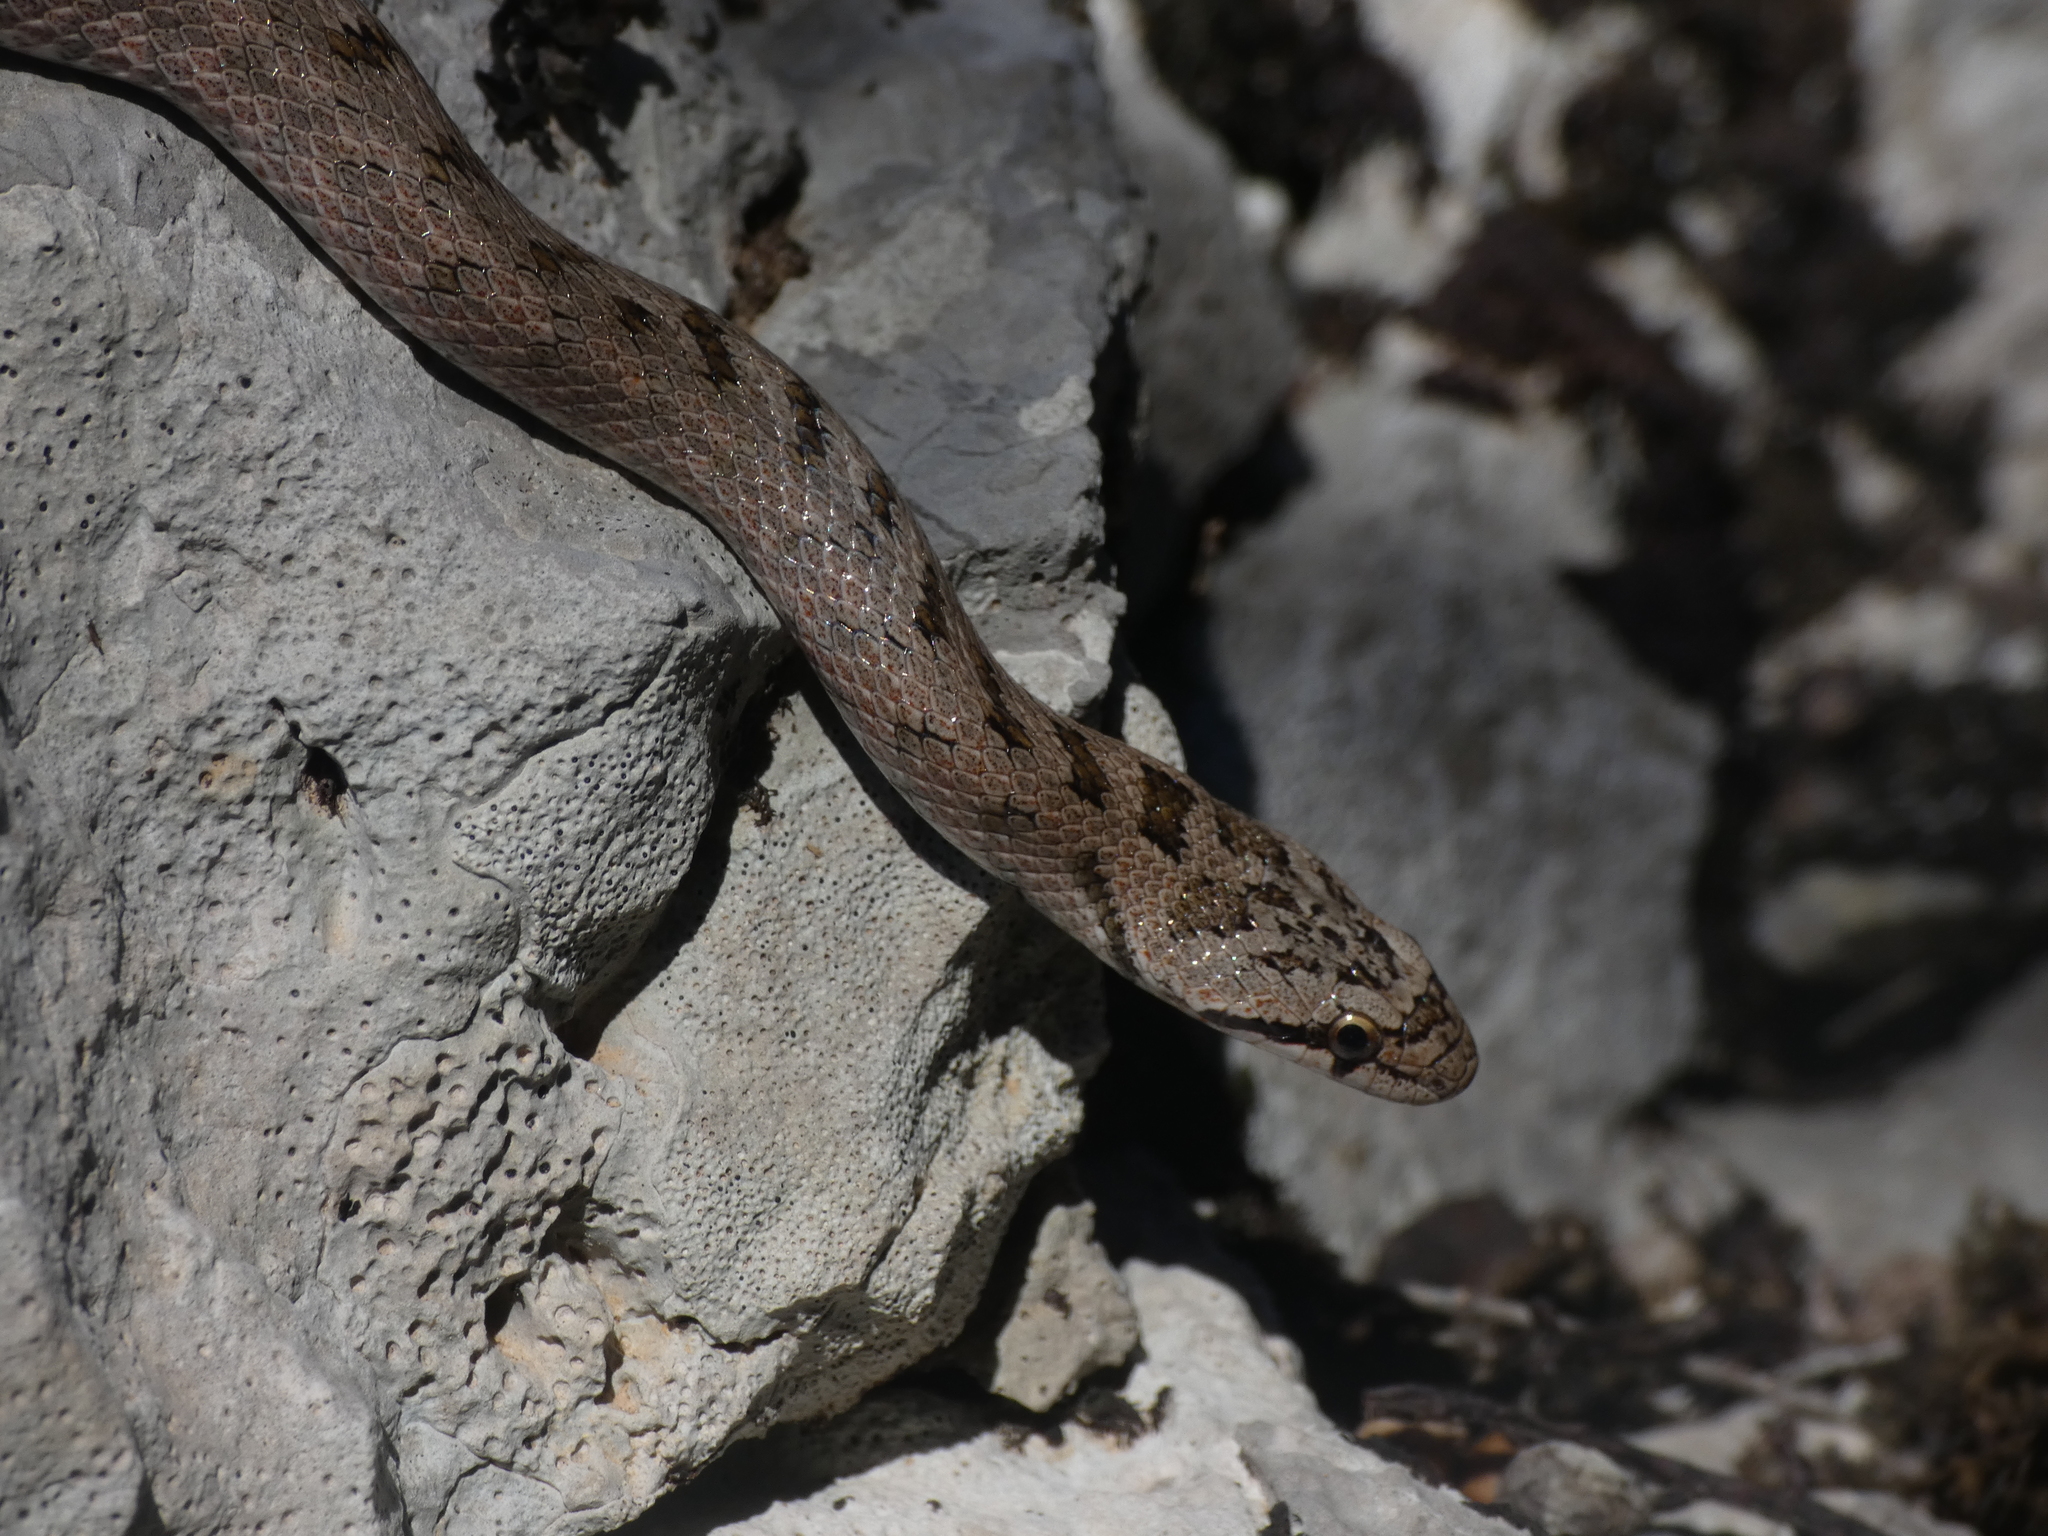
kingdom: Animalia
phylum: Chordata
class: Squamata
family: Colubridae
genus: Coronella
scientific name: Coronella girondica
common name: Southern smooth snake
